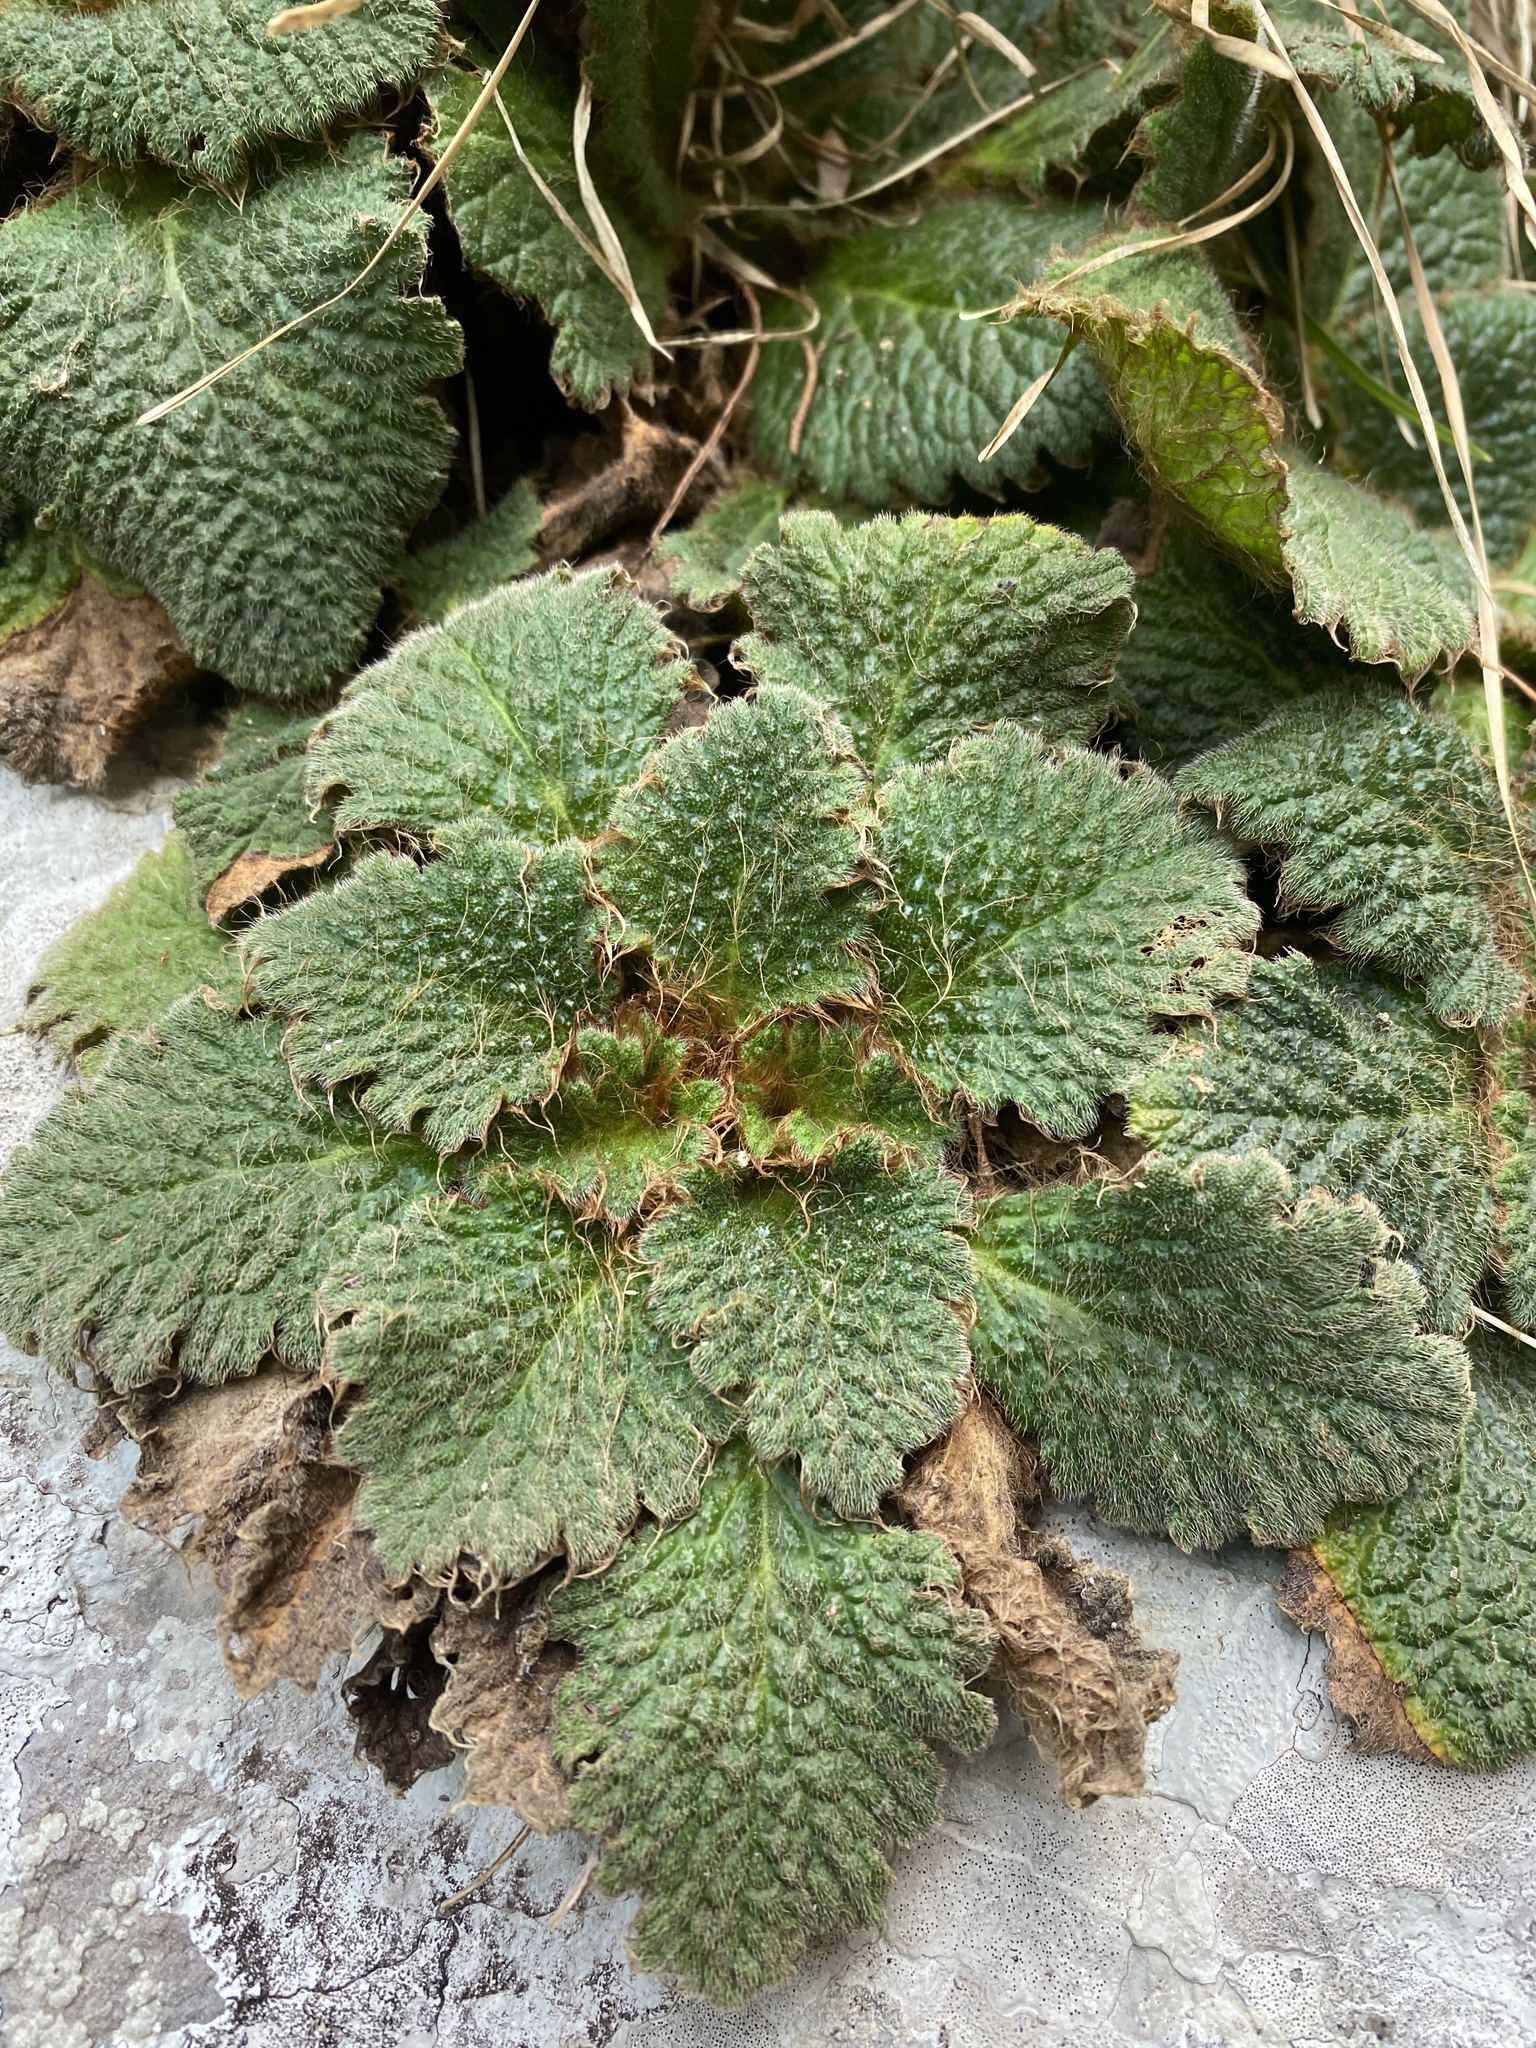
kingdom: Plantae
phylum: Tracheophyta
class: Magnoliopsida
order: Lamiales
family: Gesneriaceae
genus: Ramonda
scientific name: Ramonda myconi
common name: Pyrenean-violet
